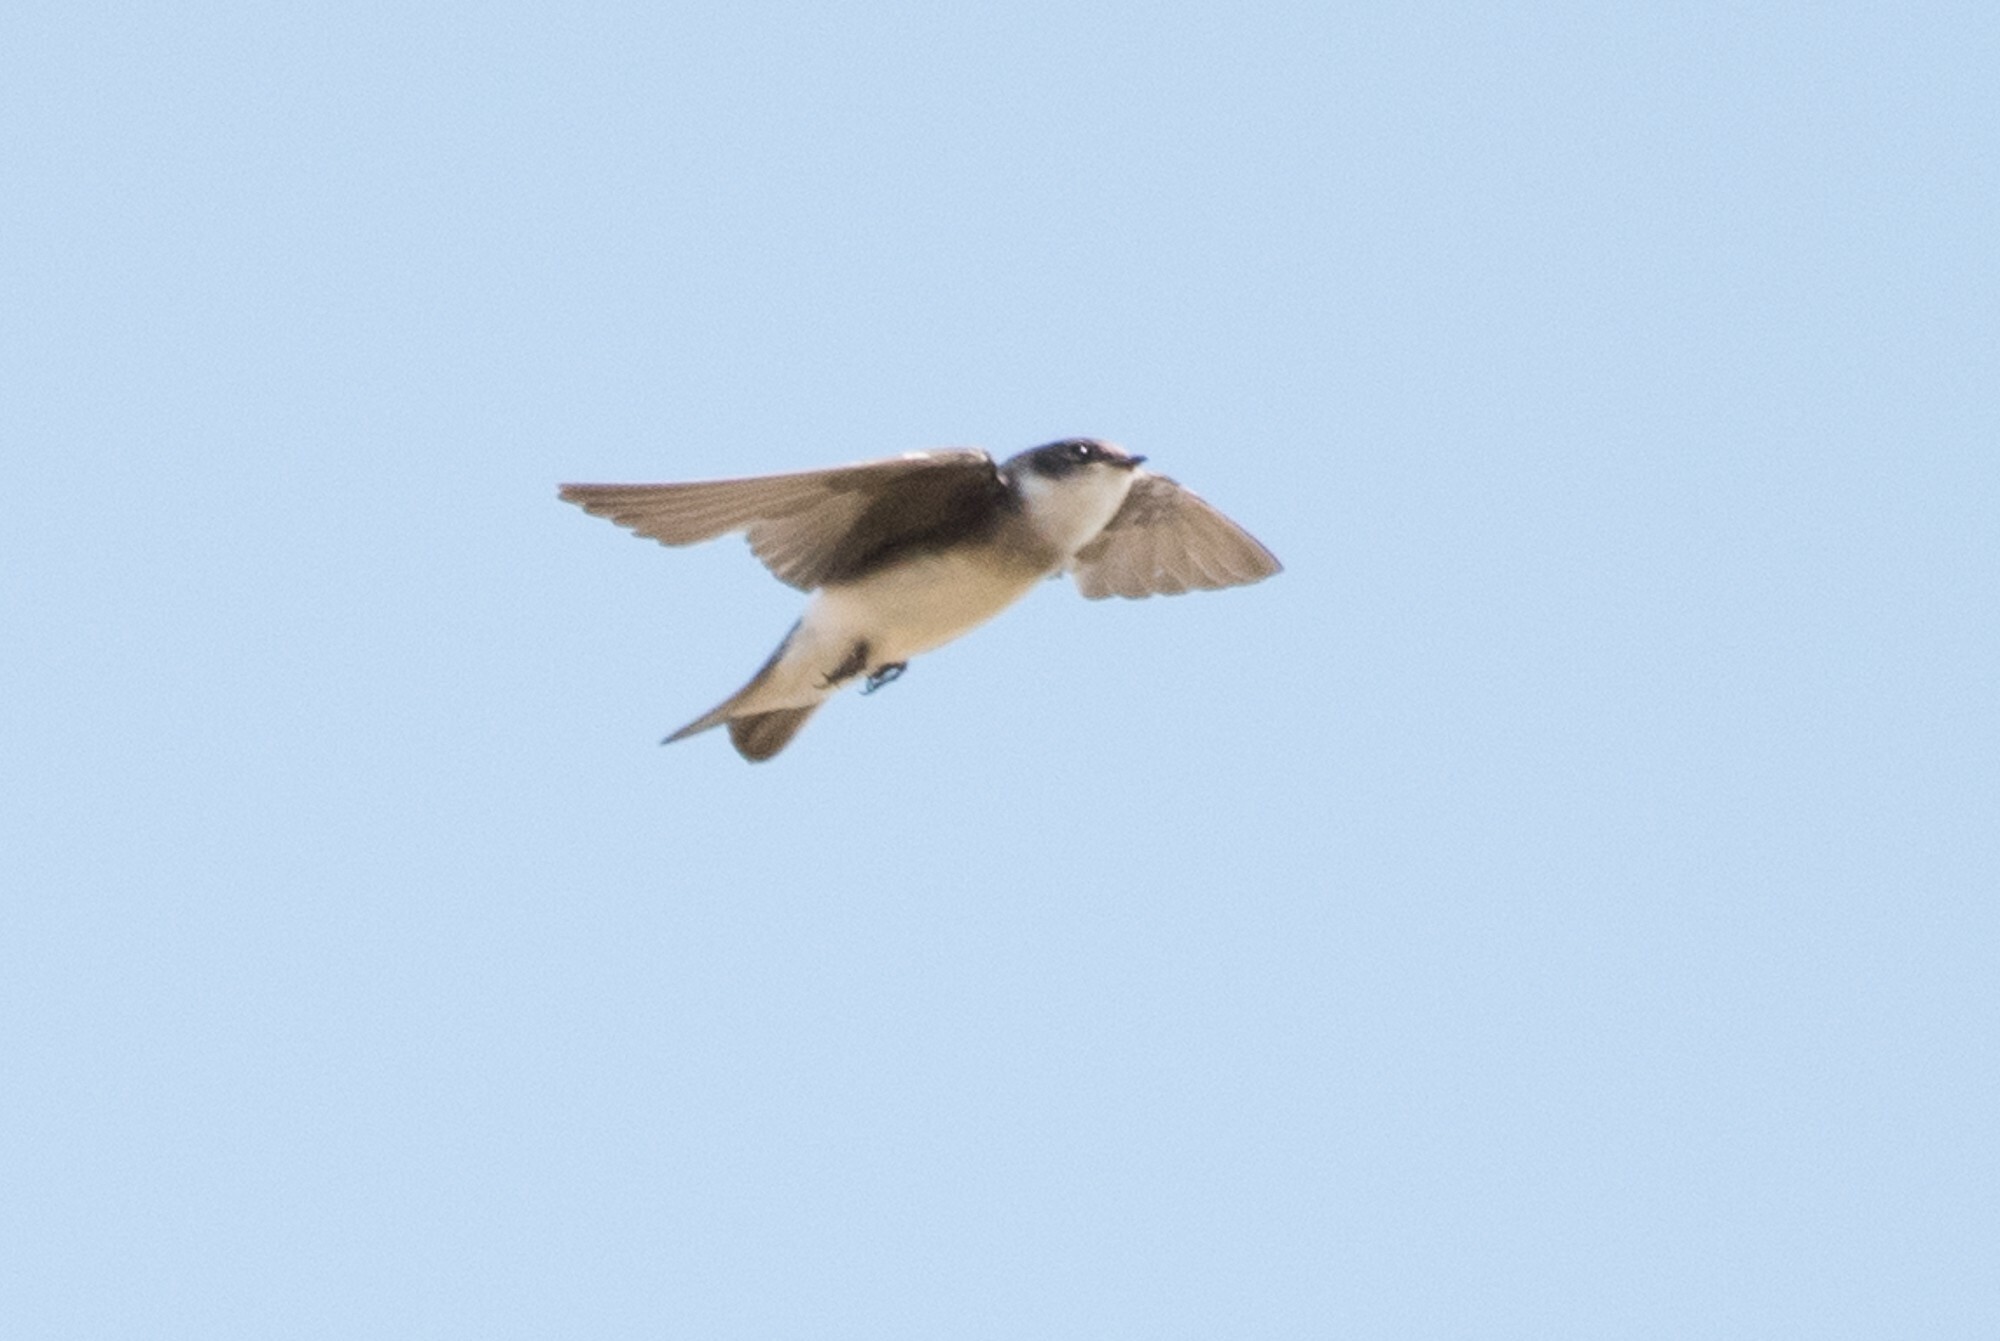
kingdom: Animalia
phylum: Chordata
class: Aves
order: Passeriformes
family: Hirundinidae
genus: Tachycineta
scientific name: Tachycineta bicolor
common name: Tree swallow
